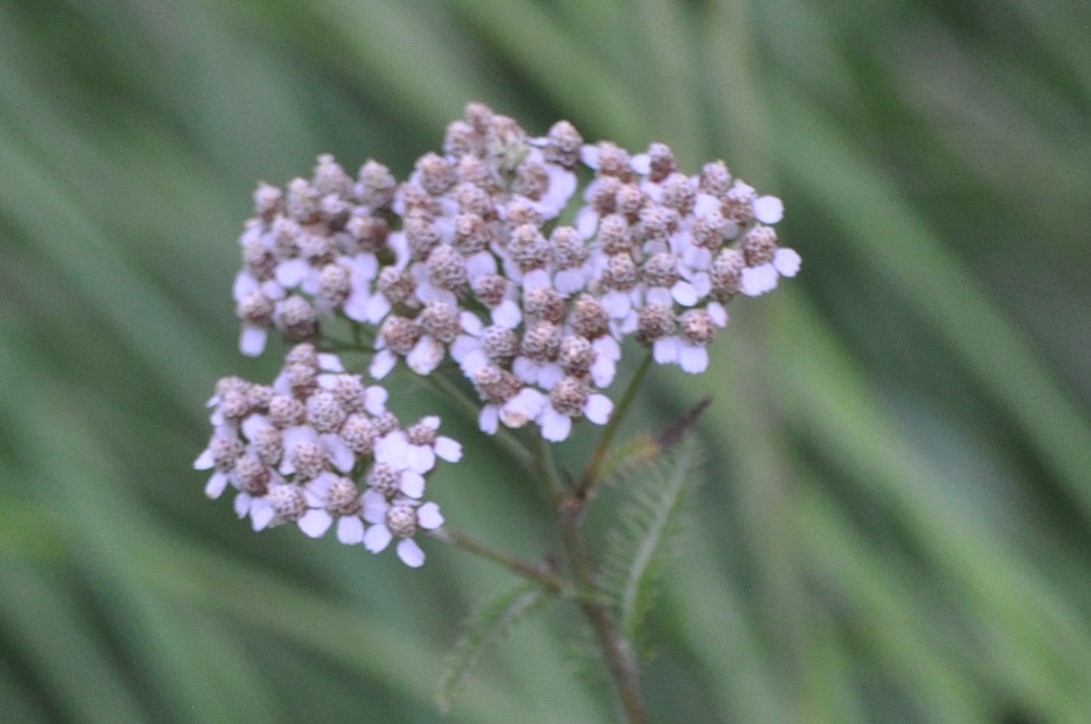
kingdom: Plantae
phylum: Tracheophyta
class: Magnoliopsida
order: Asterales
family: Asteraceae
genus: Achillea
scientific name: Achillea millefolium
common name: Yarrow
